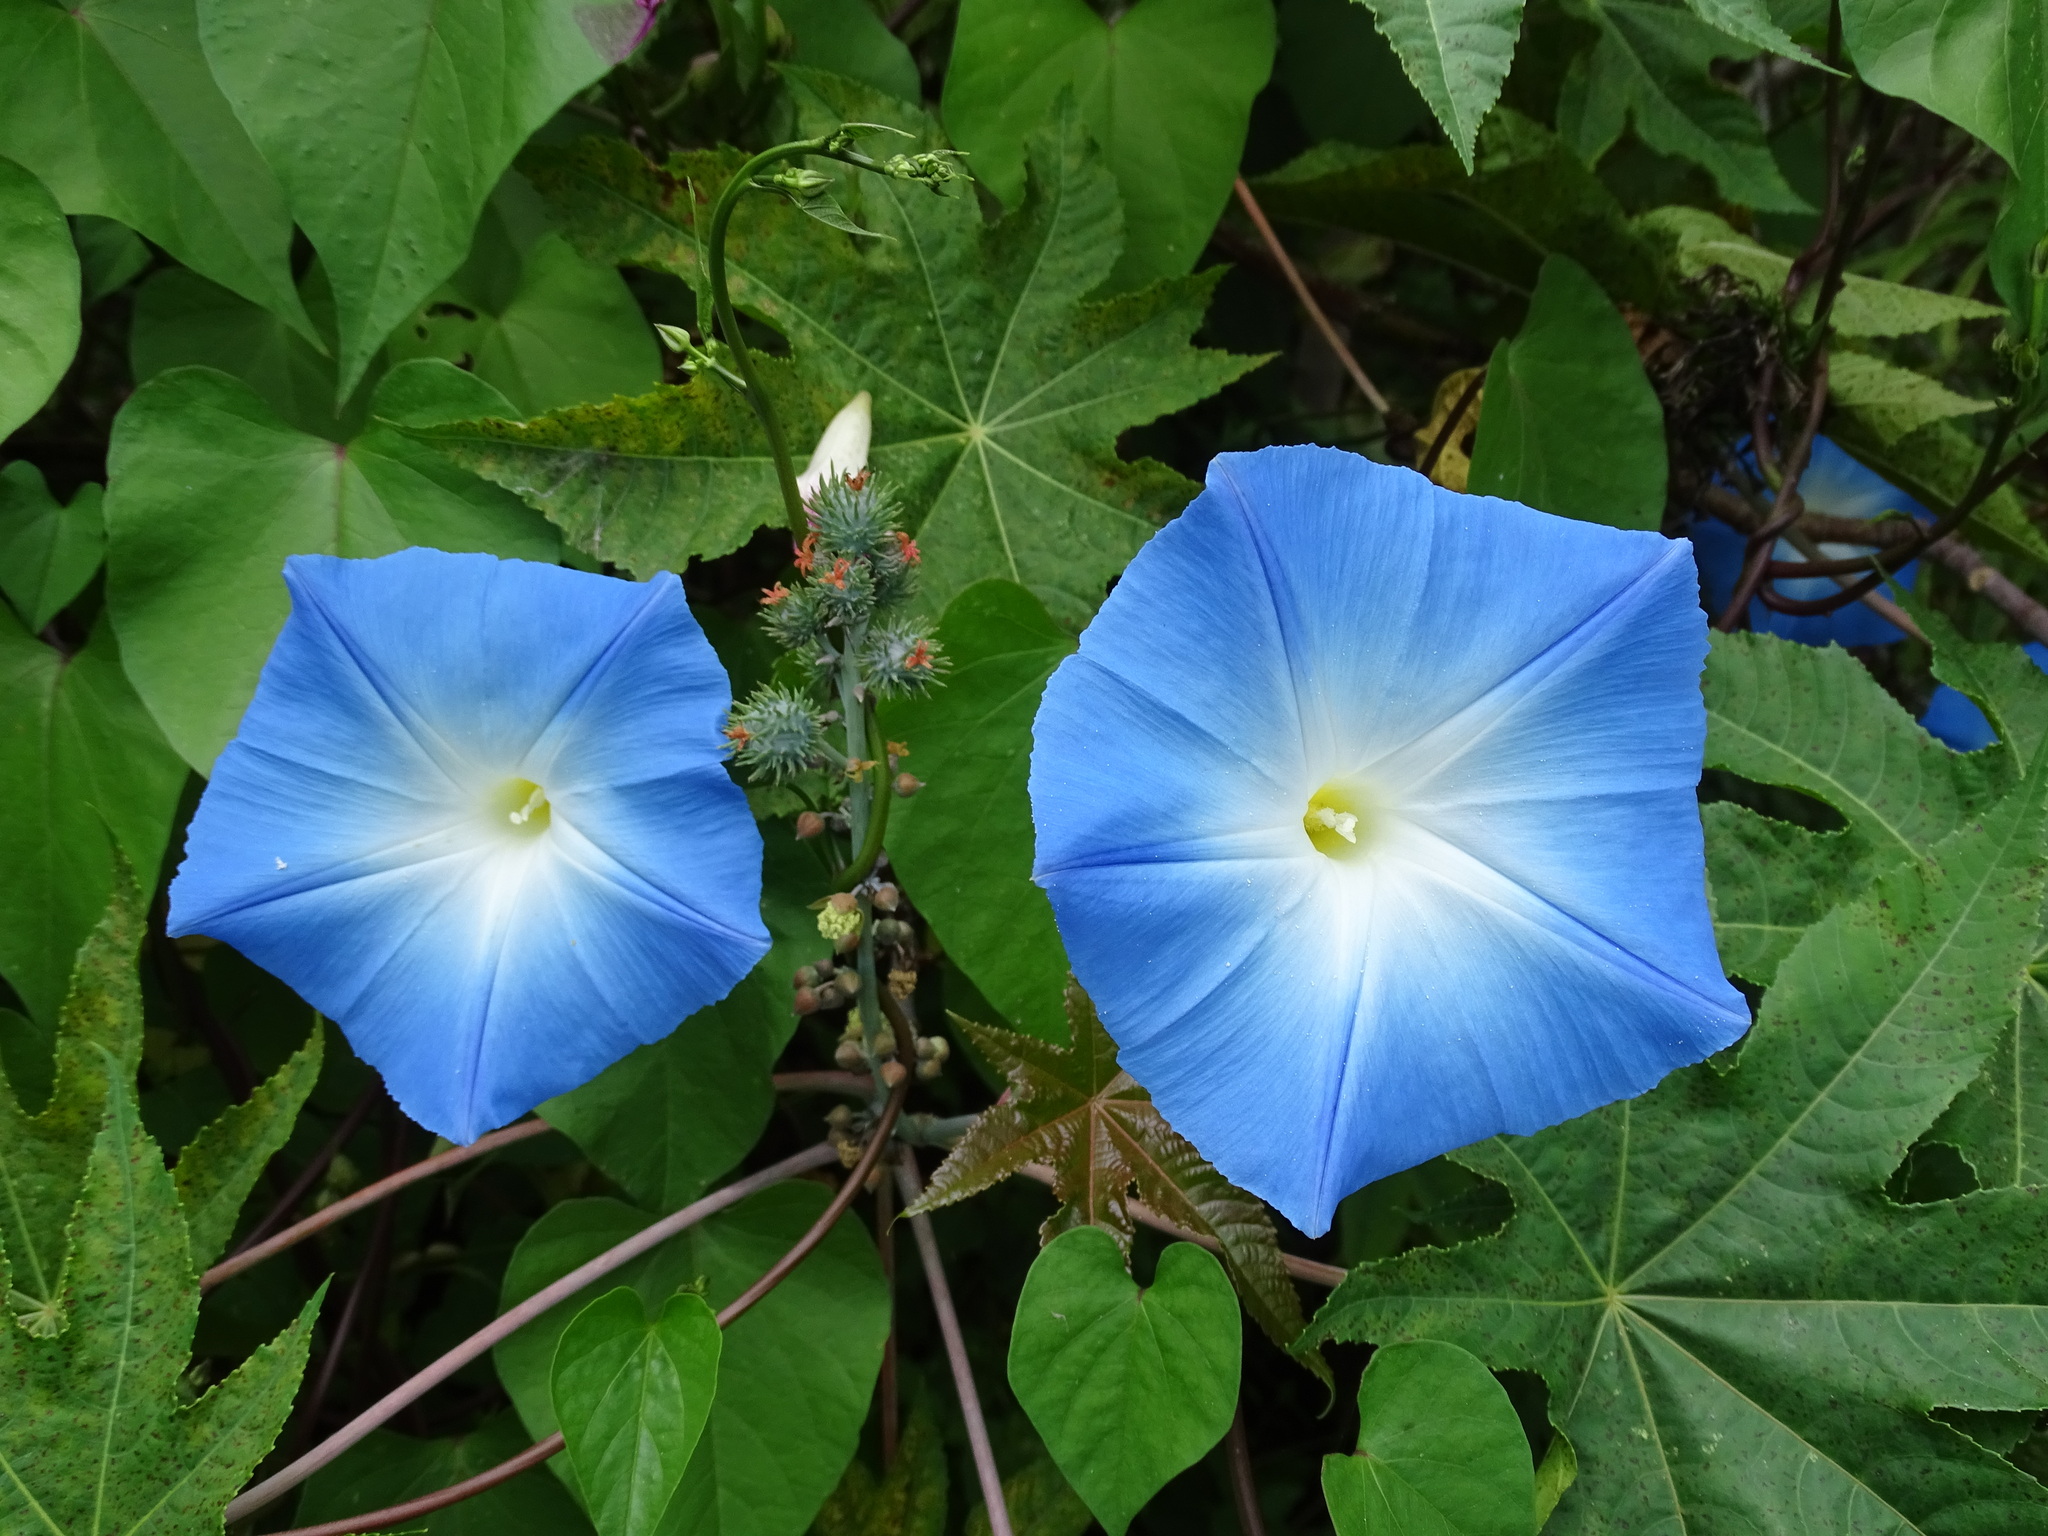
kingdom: Plantae
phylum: Tracheophyta
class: Magnoliopsida
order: Solanales
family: Convolvulaceae
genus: Ipomoea
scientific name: Ipomoea tricolor
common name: Morning-glory
